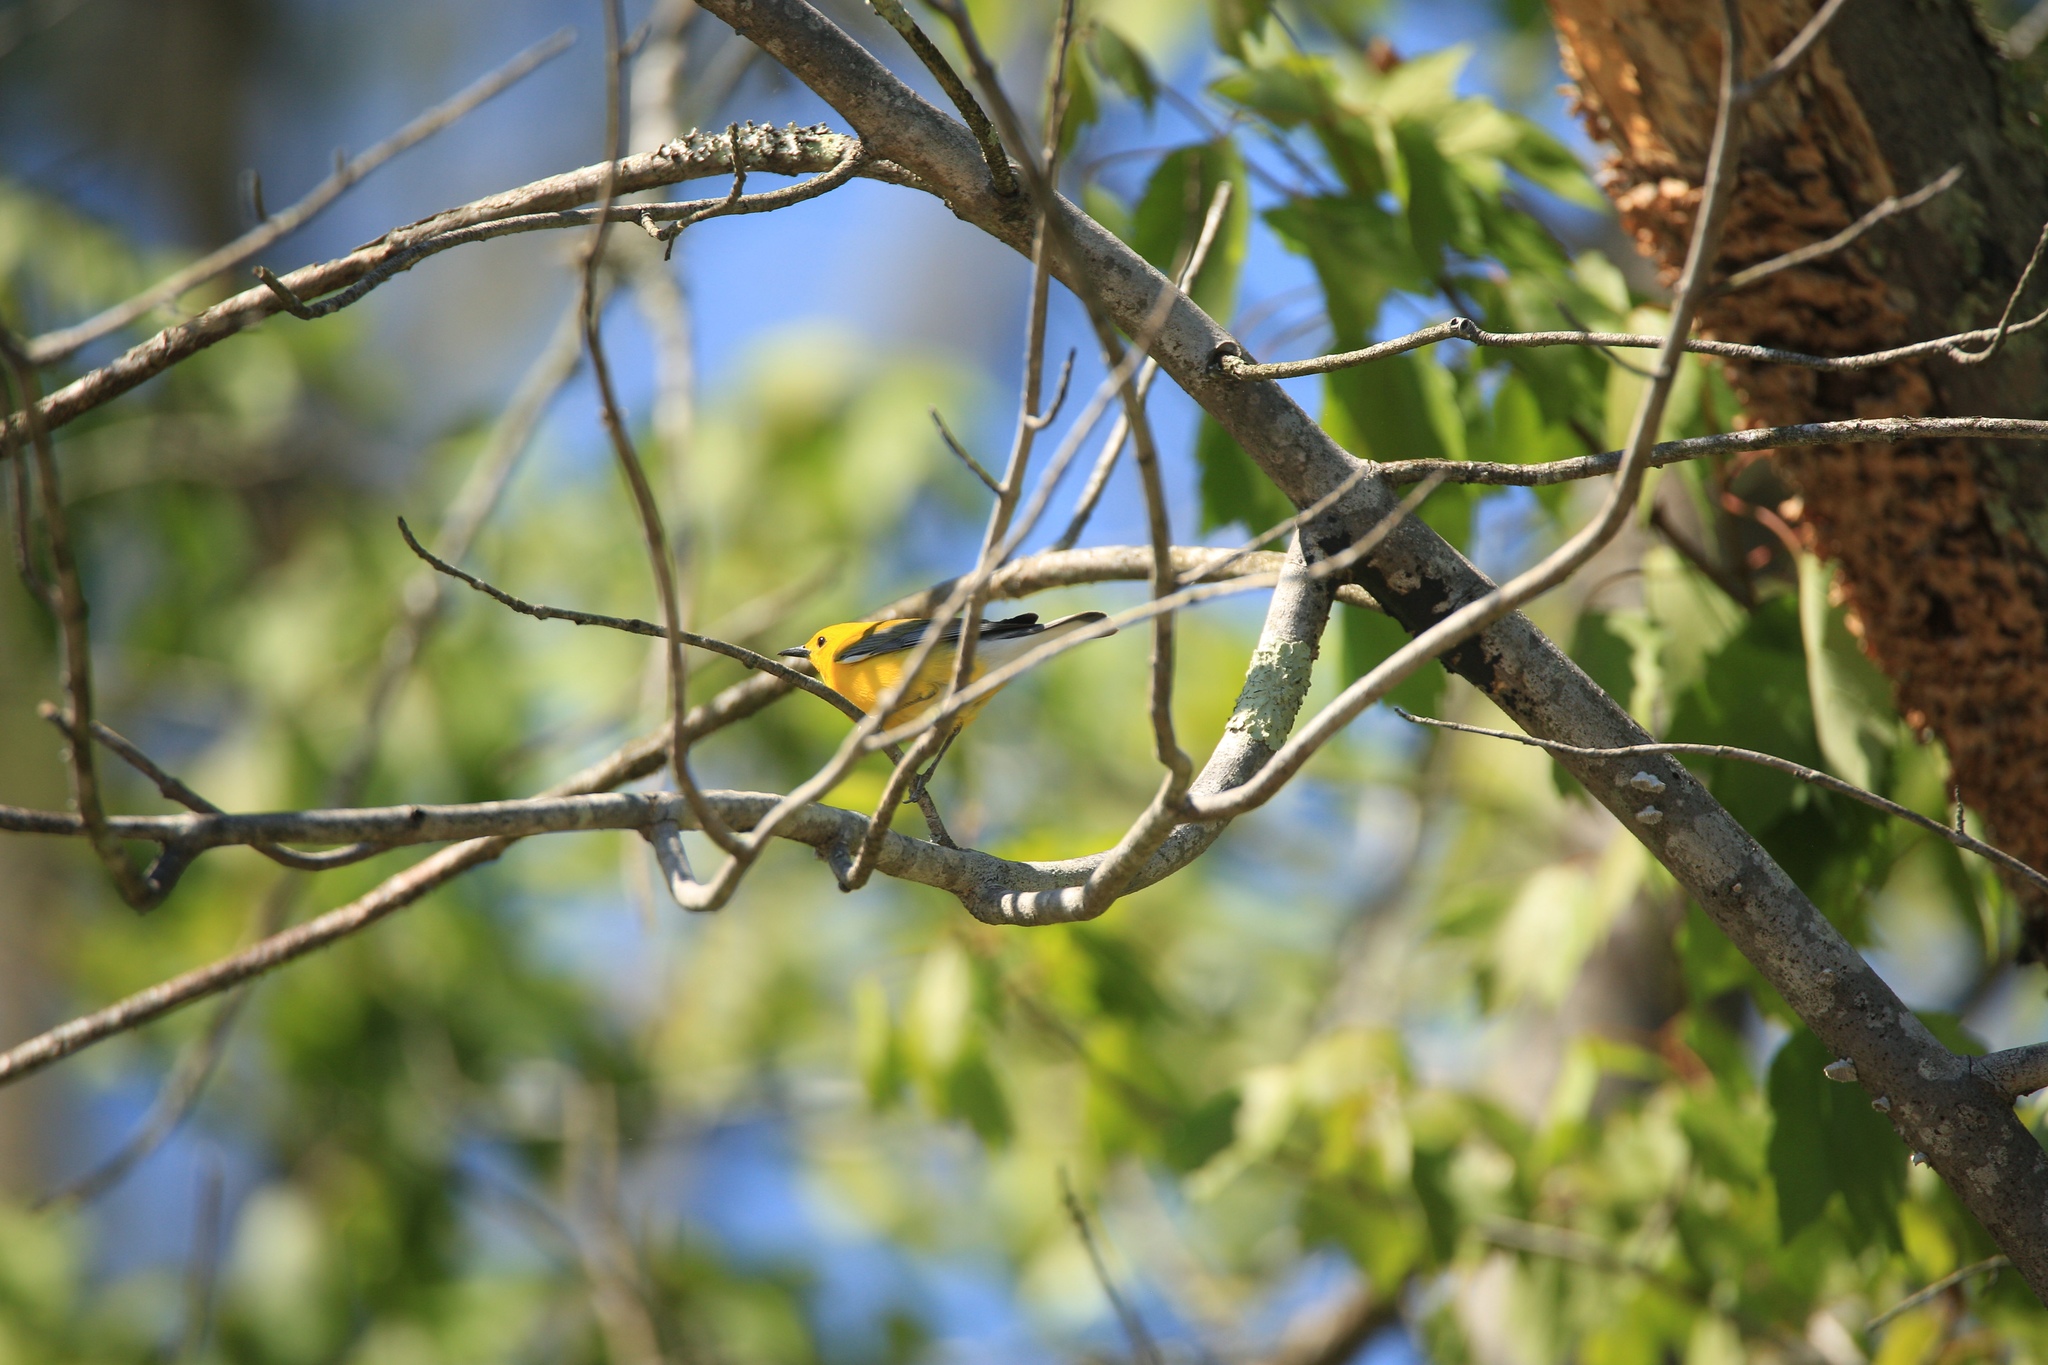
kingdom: Animalia
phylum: Chordata
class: Aves
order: Passeriformes
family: Parulidae
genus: Protonotaria
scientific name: Protonotaria citrea
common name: Prothonotary warbler
